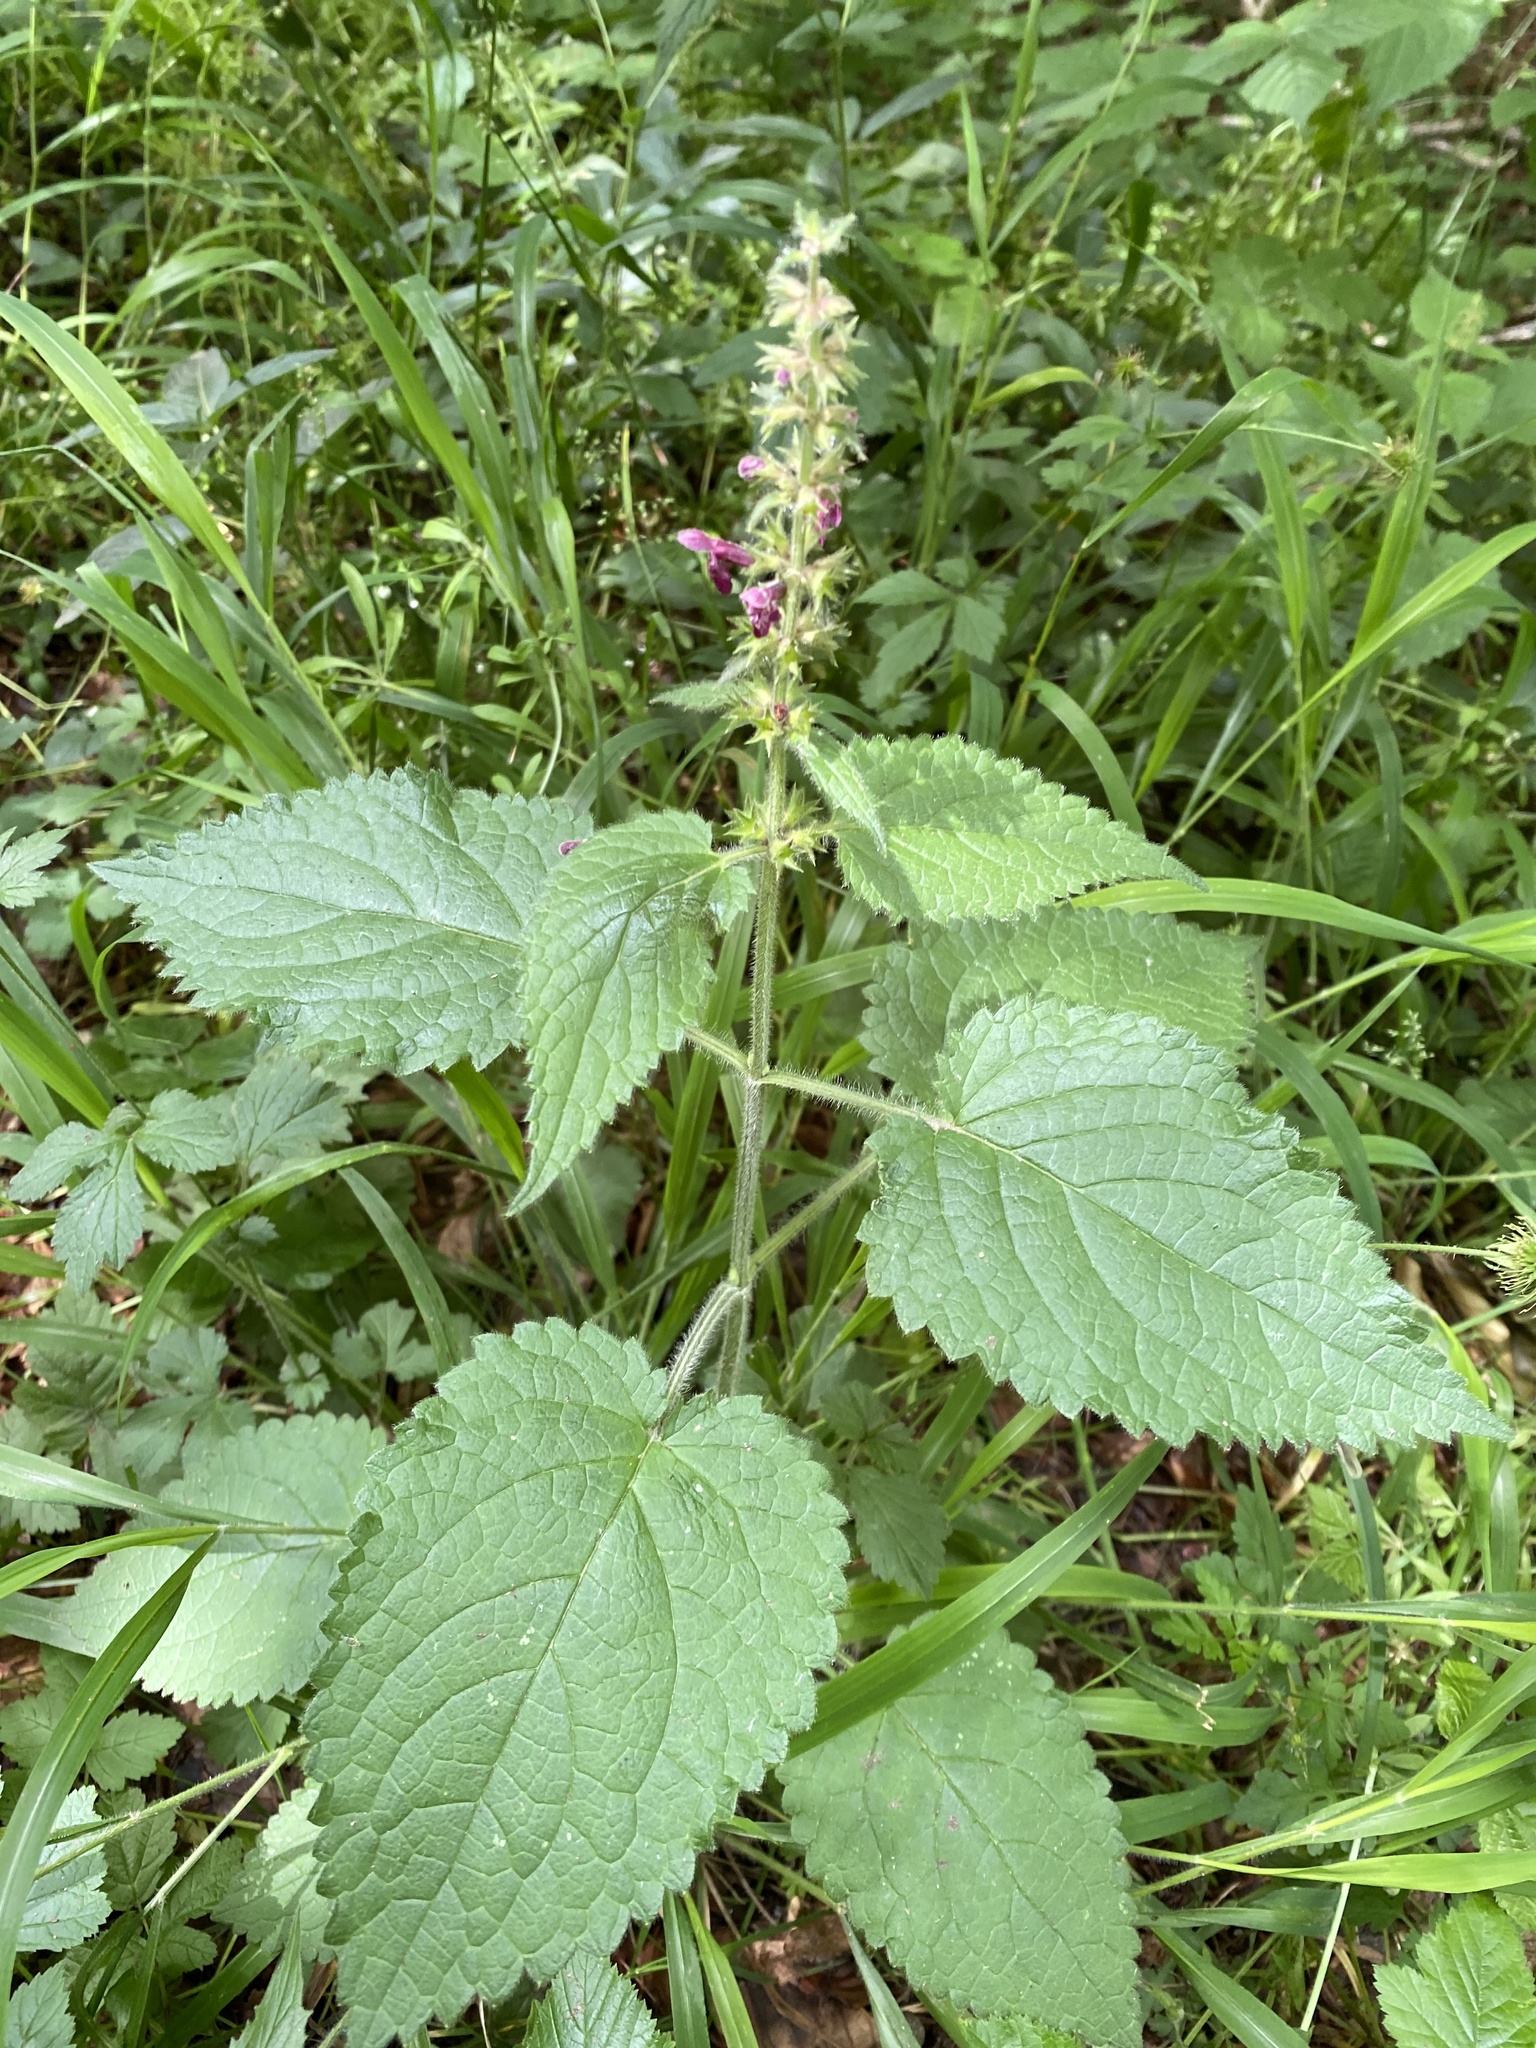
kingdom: Plantae
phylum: Tracheophyta
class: Magnoliopsida
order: Lamiales
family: Lamiaceae
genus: Stachys
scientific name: Stachys sylvatica
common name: Hedge woundwort
